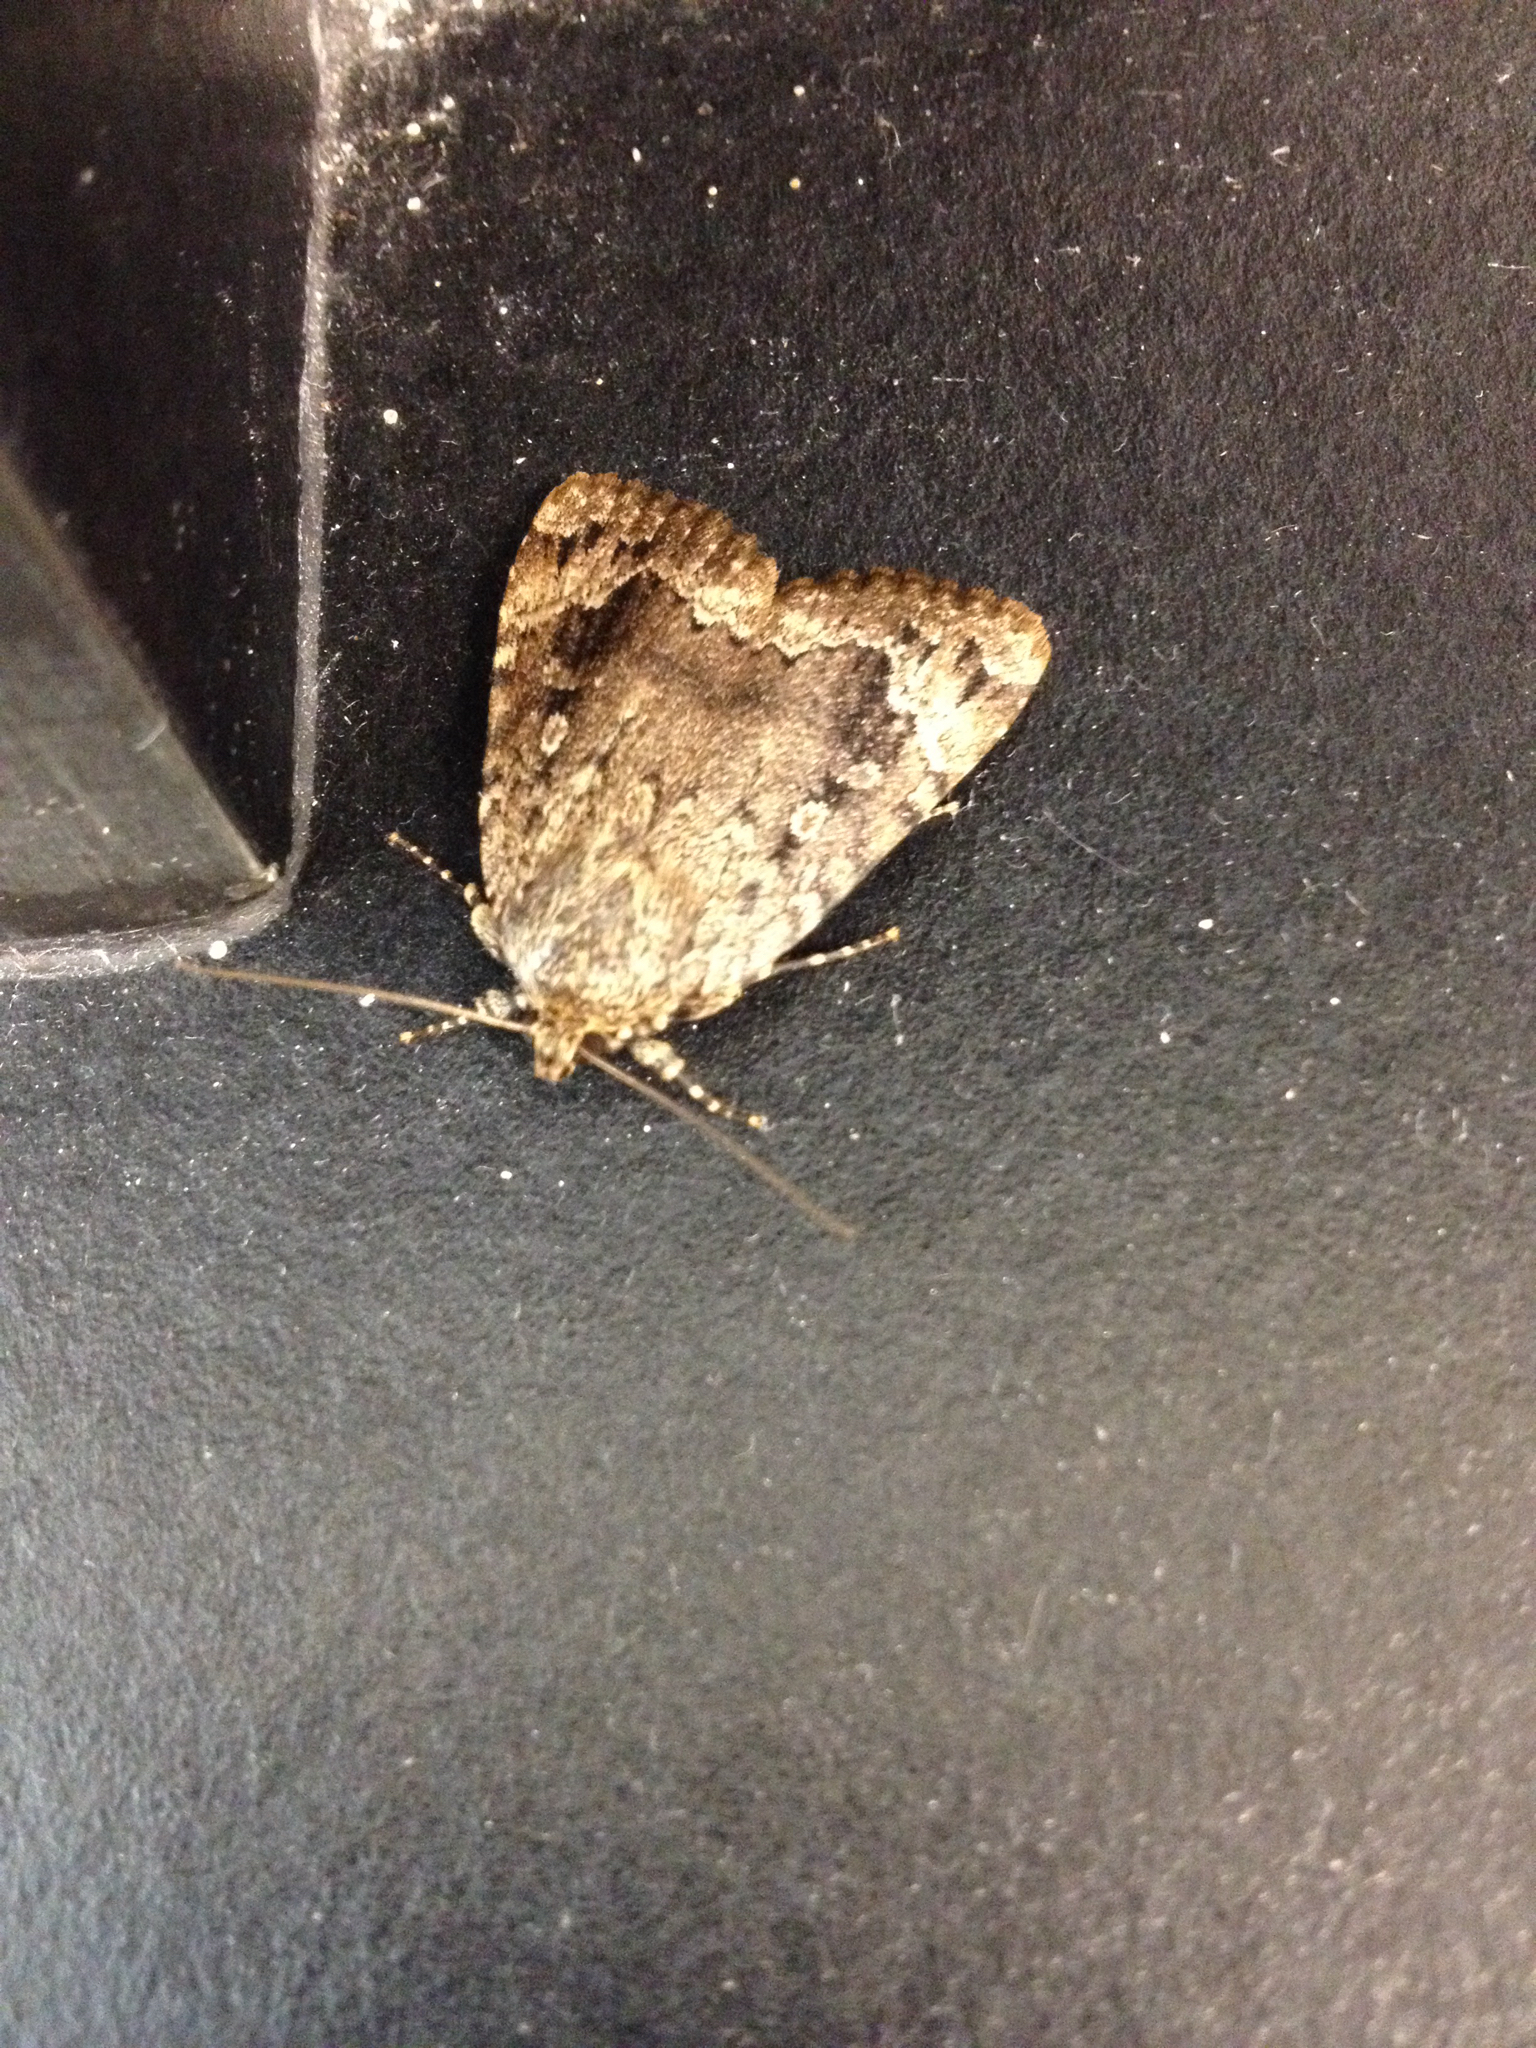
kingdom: Animalia
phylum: Arthropoda
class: Insecta
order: Lepidoptera
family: Noctuidae
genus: Amphipyra
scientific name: Amphipyra pyramidoides
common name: American copper underwing
